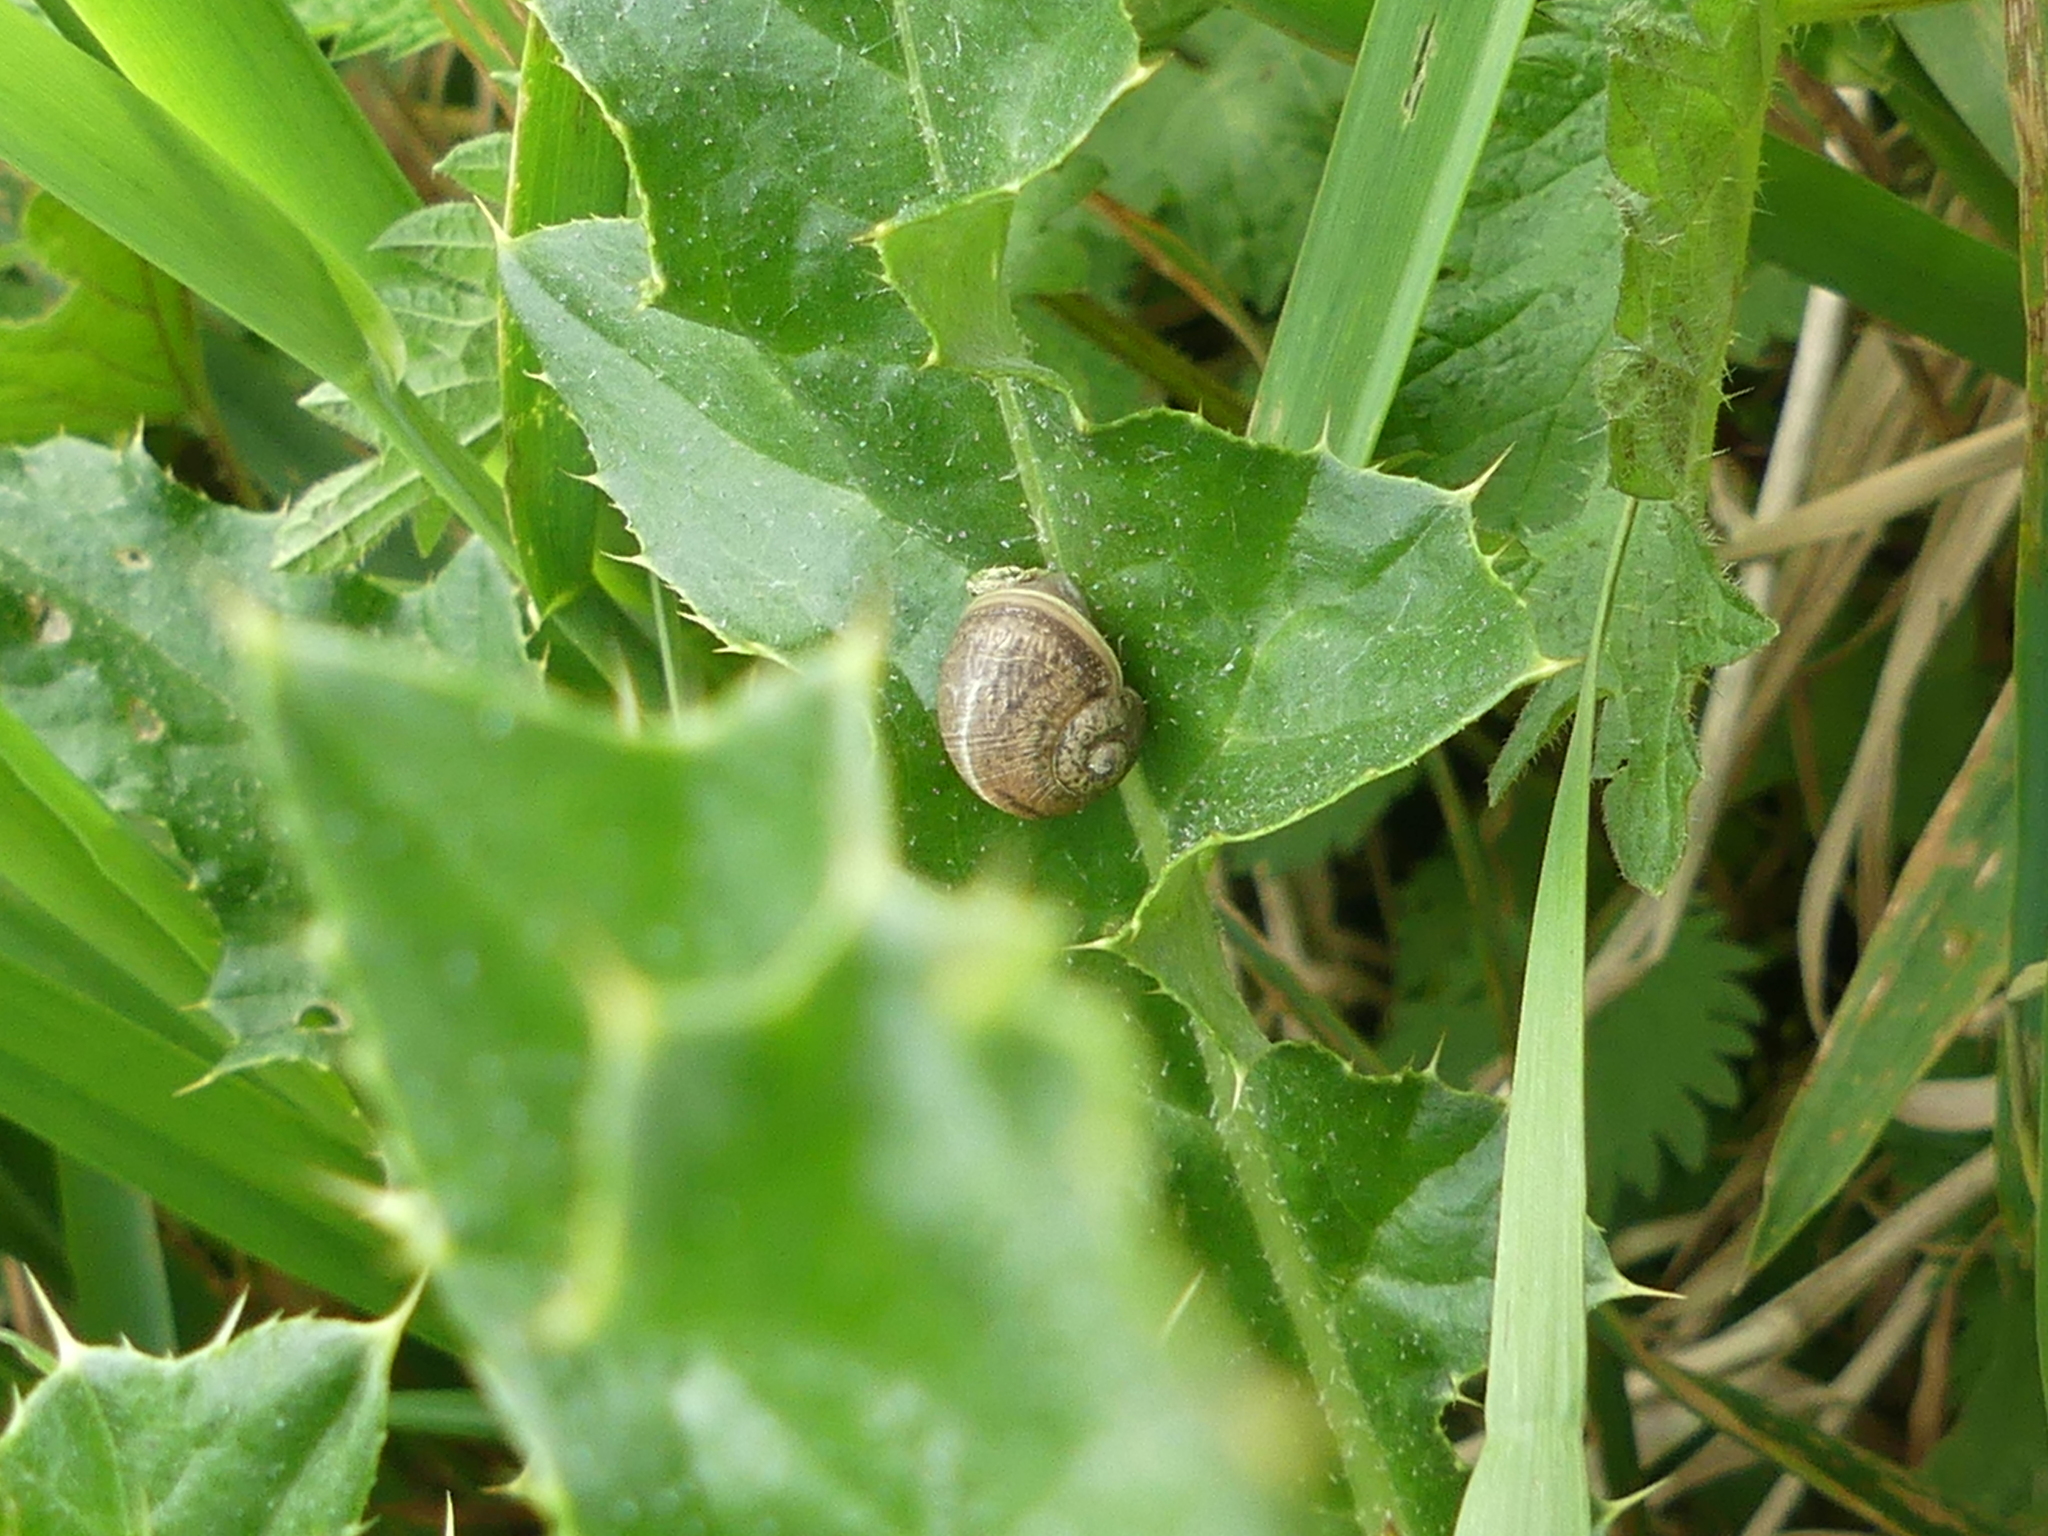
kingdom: Animalia
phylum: Mollusca
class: Gastropoda
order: Stylommatophora
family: Helicidae
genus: Cornu
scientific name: Cornu aspersum
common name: Brown garden snail
